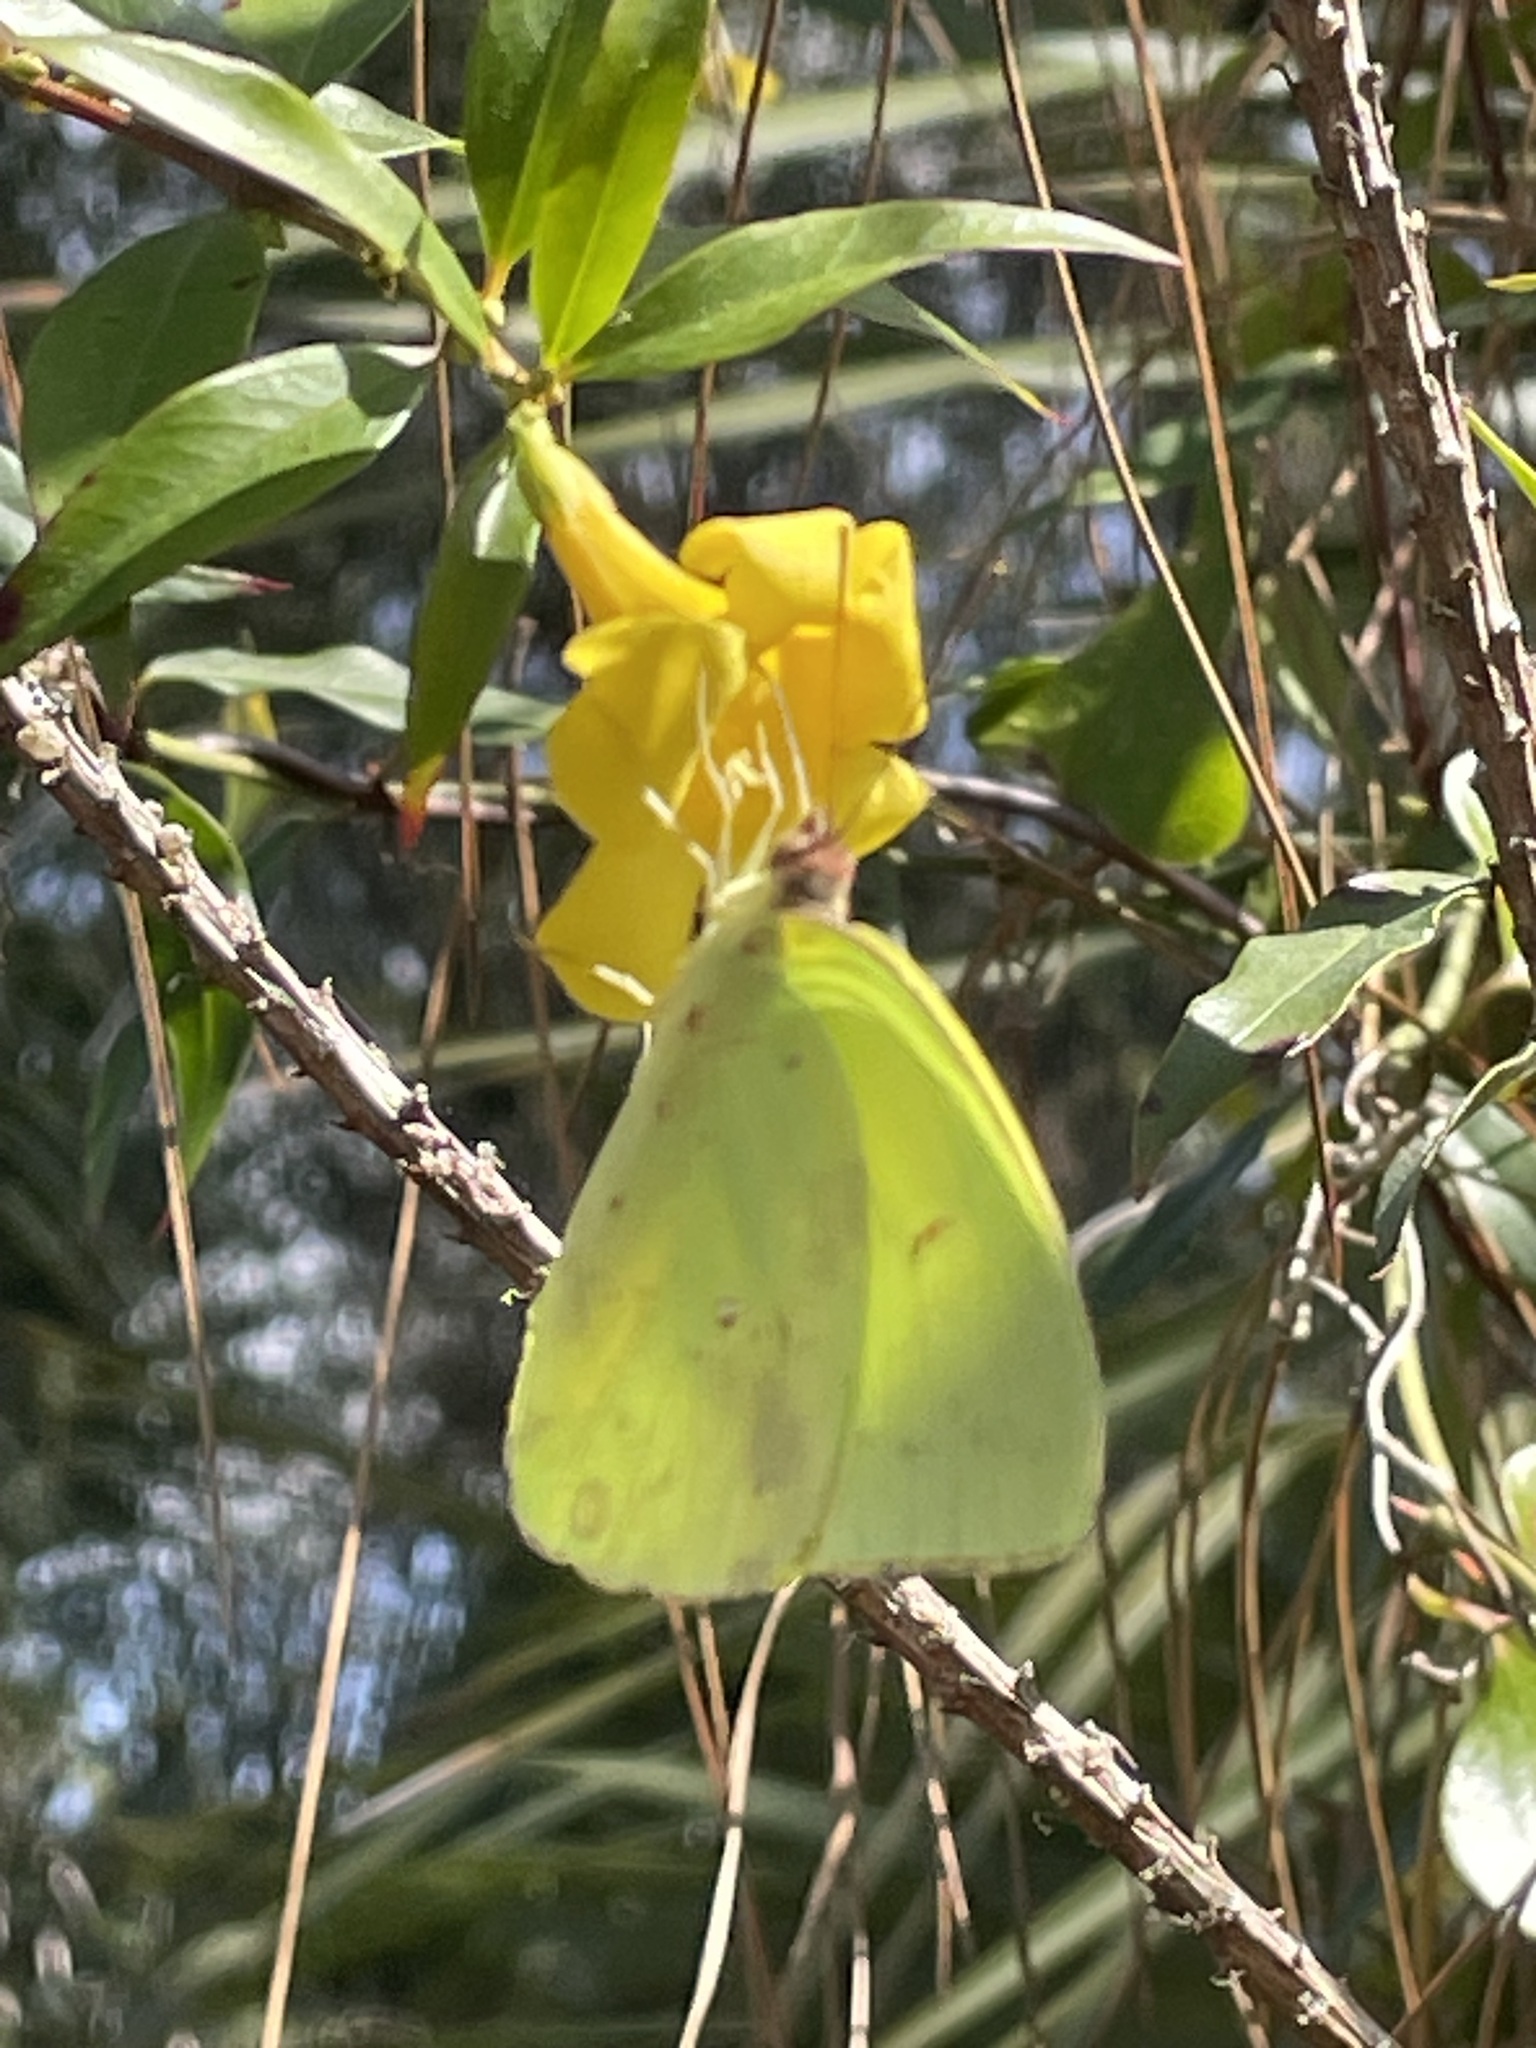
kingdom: Animalia
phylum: Arthropoda
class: Insecta
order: Lepidoptera
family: Pieridae
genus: Phoebis
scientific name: Phoebis sennae
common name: Cloudless sulphur
